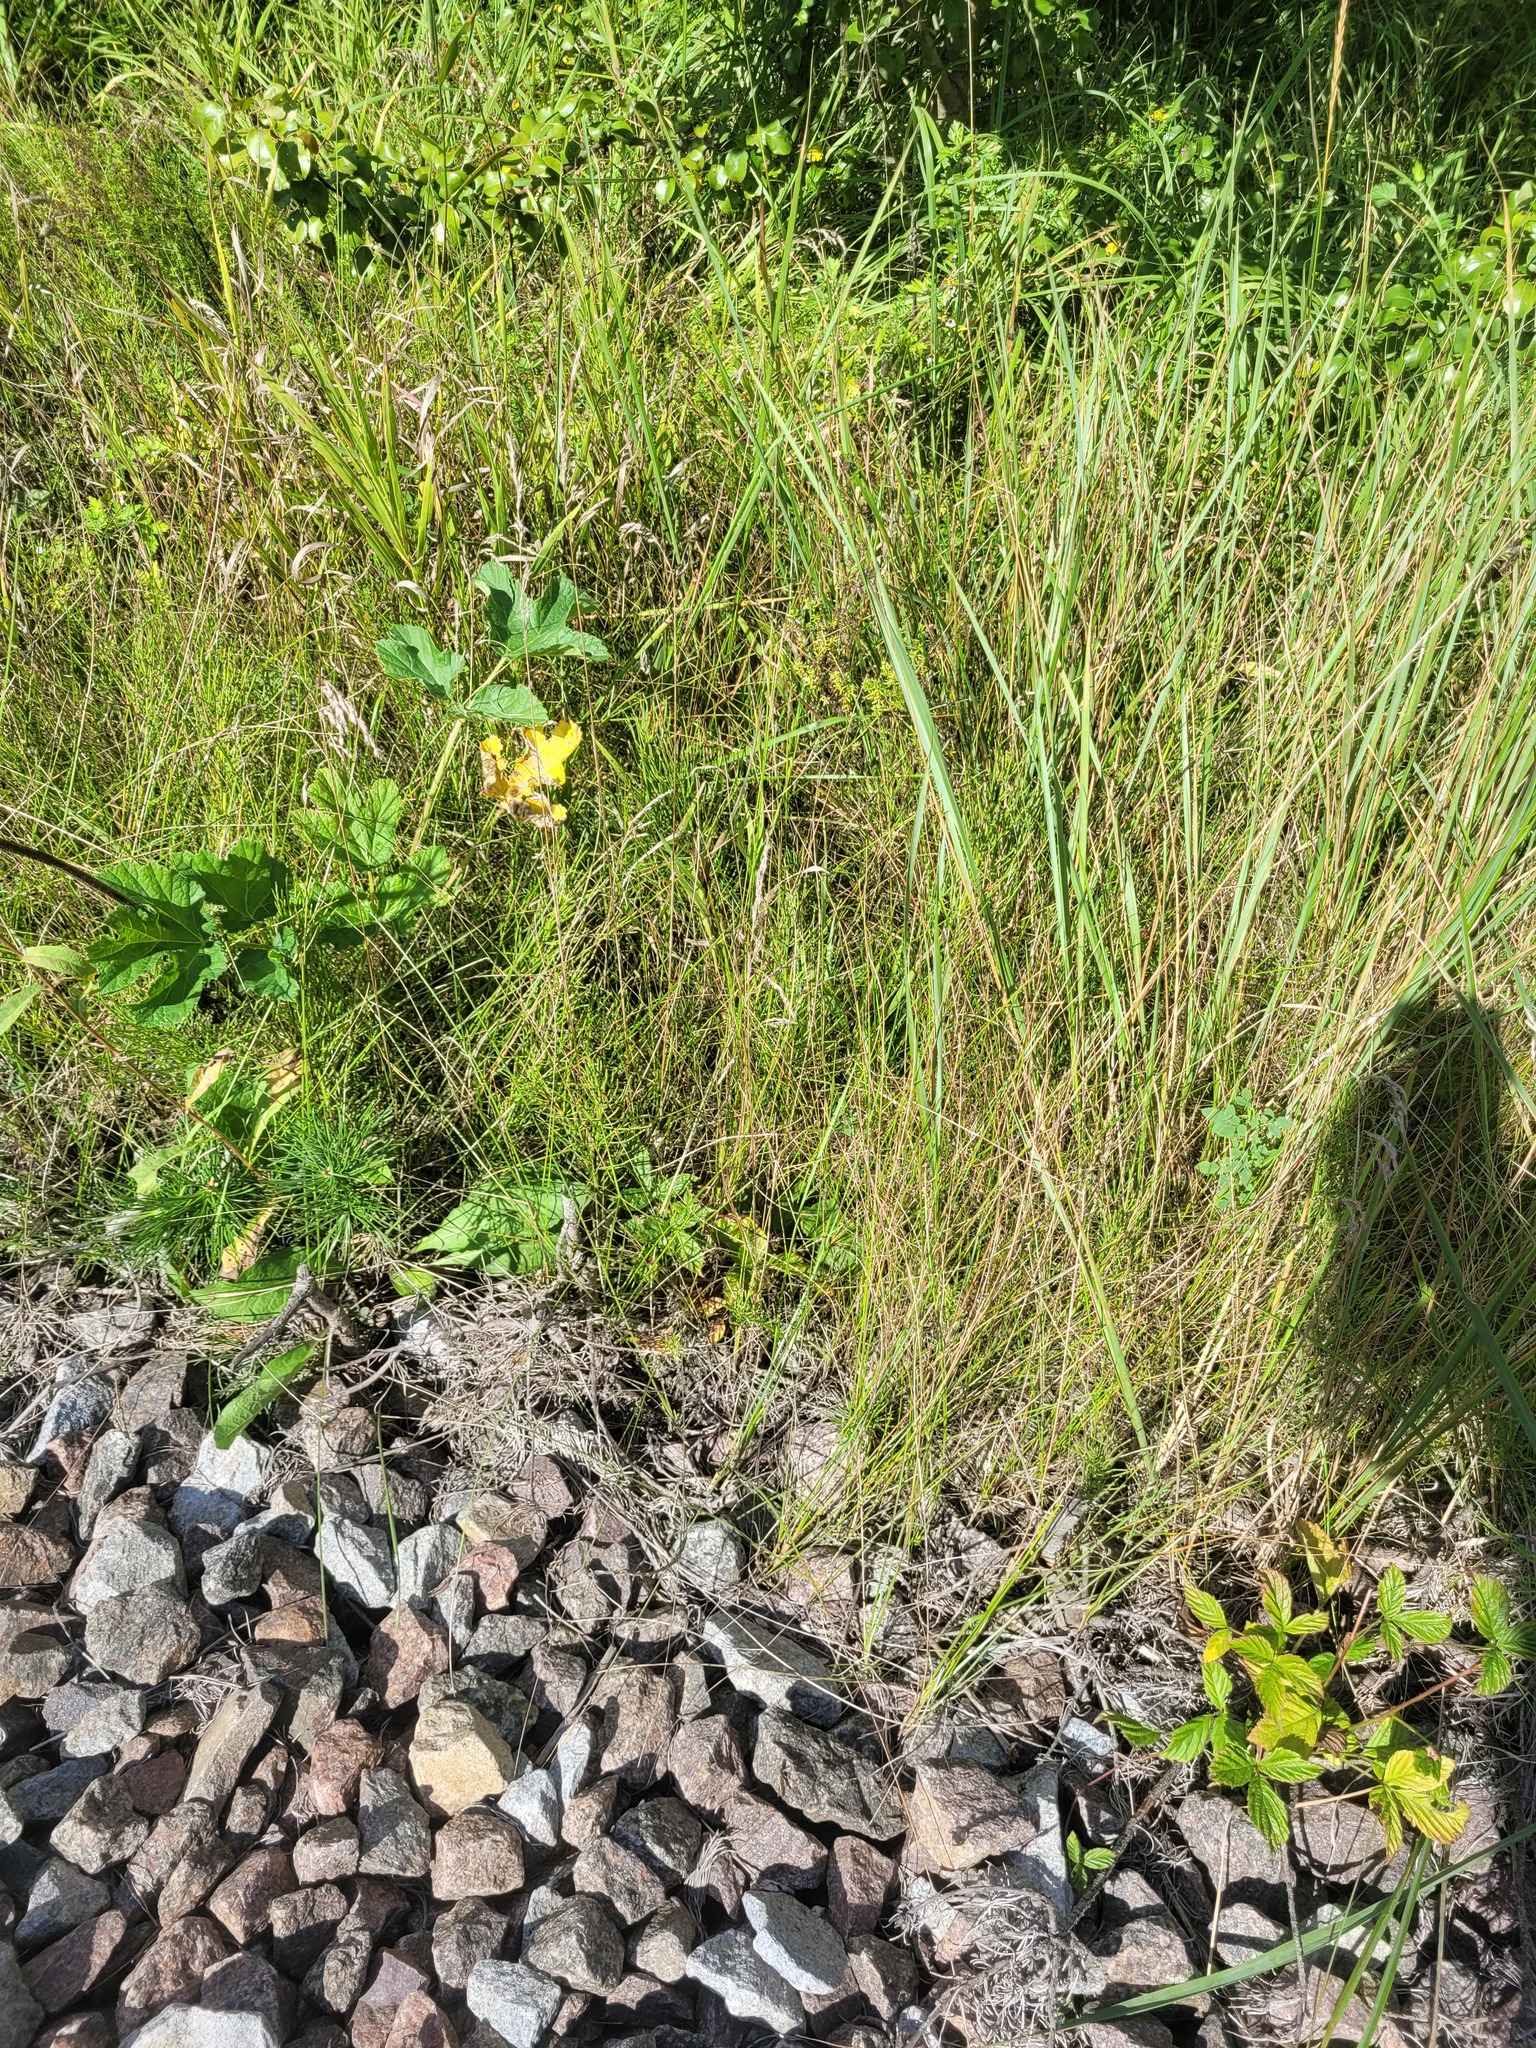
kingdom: Plantae
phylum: Tracheophyta
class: Liliopsida
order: Poales
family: Poaceae
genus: Poa
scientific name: Poa angustifolia
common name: Narrow-leaved meadow-grass
